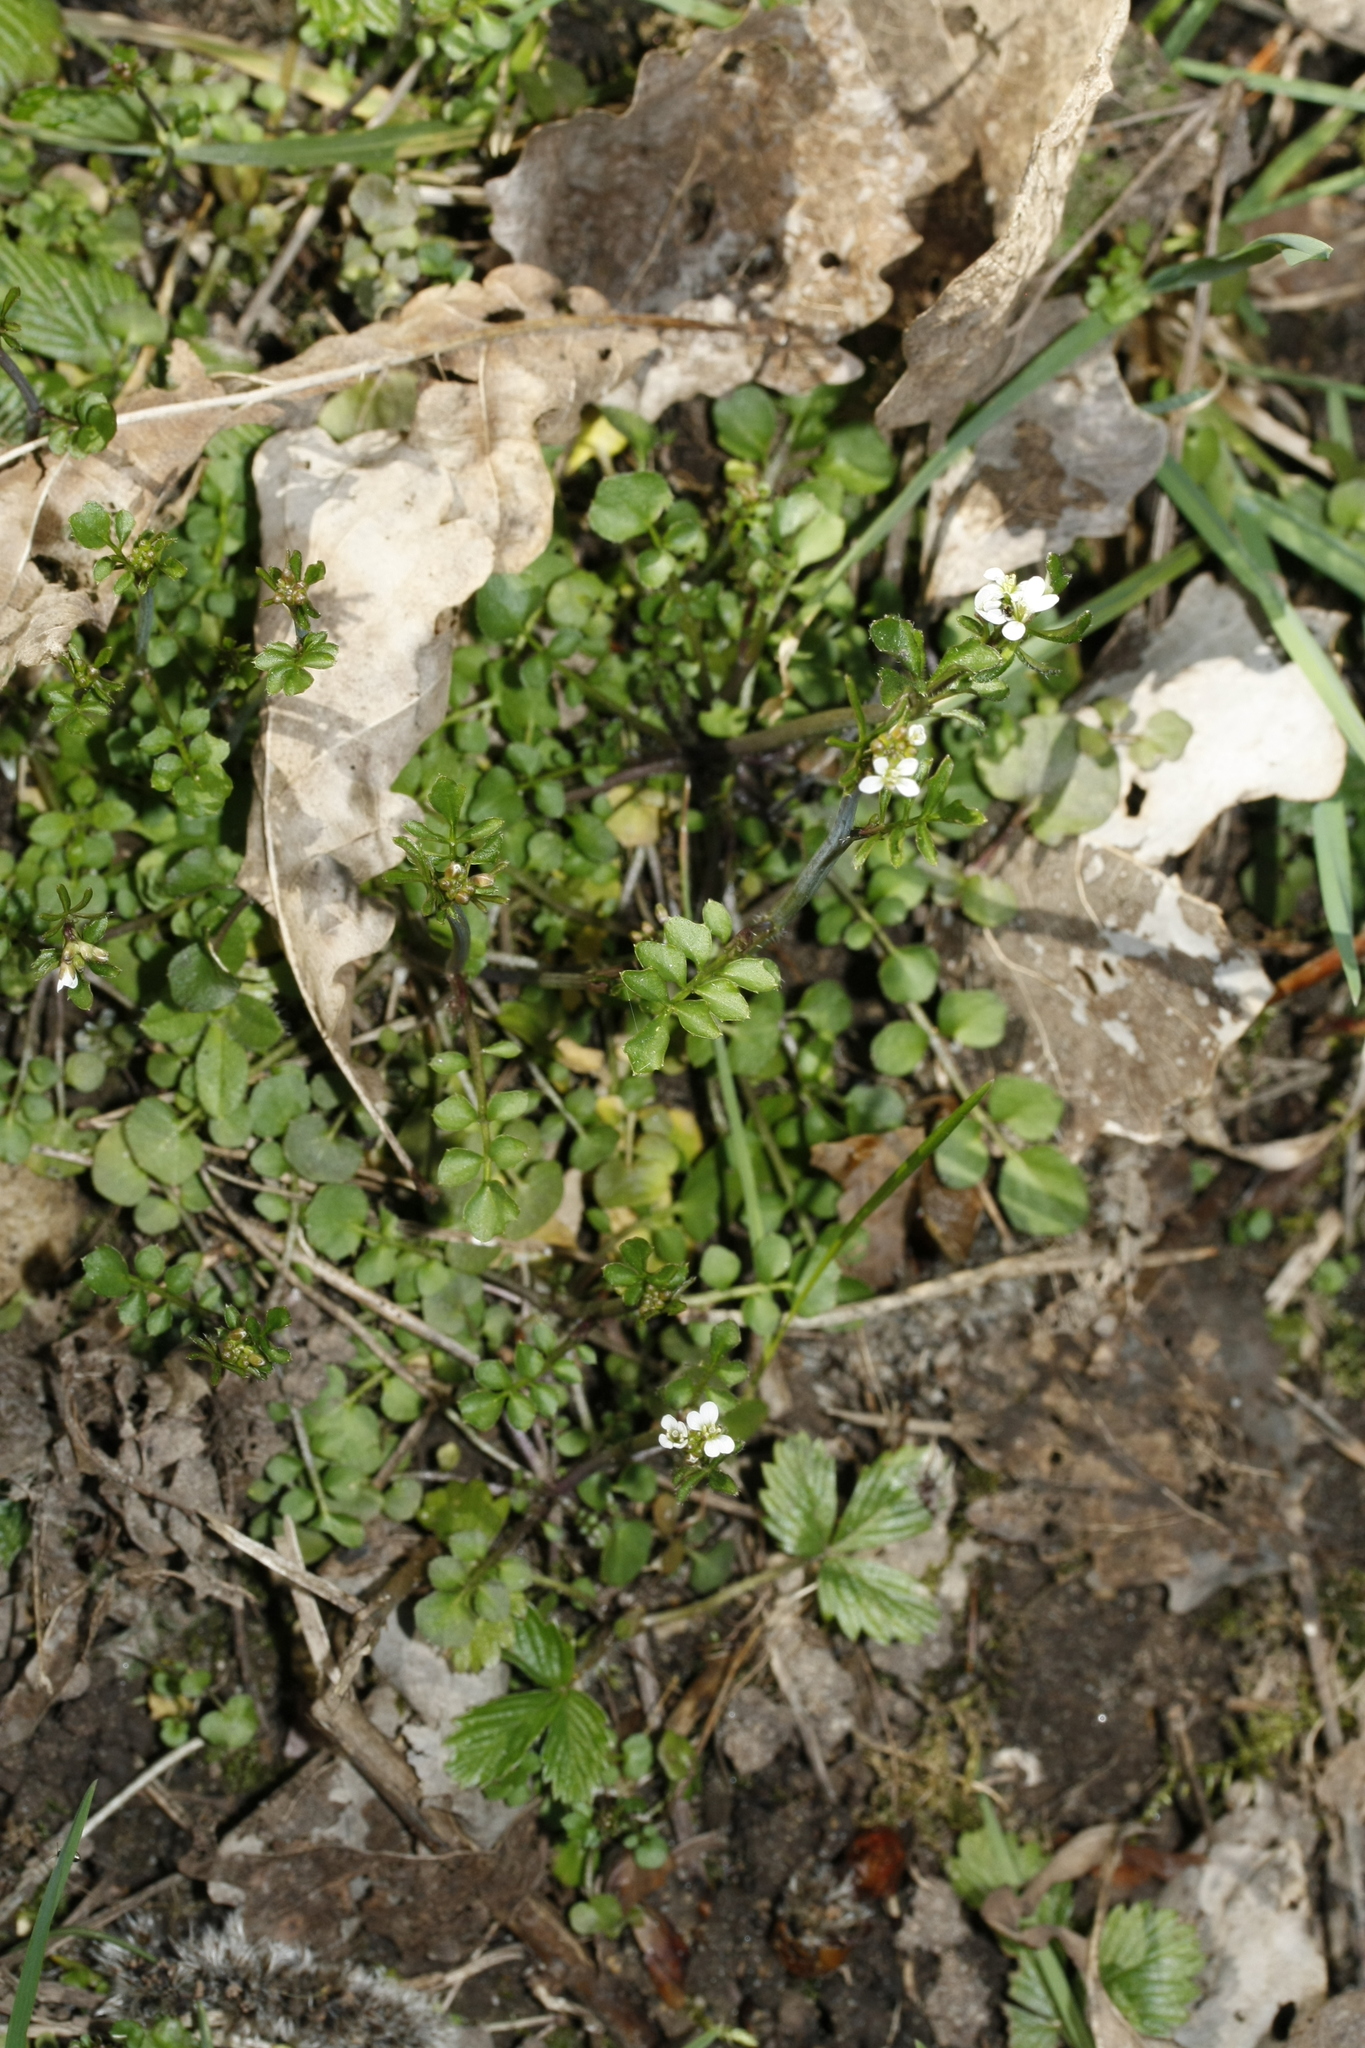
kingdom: Plantae
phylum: Tracheophyta
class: Magnoliopsida
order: Brassicales
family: Brassicaceae
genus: Cardamine
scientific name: Cardamine hirsuta
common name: Hairy bittercress
